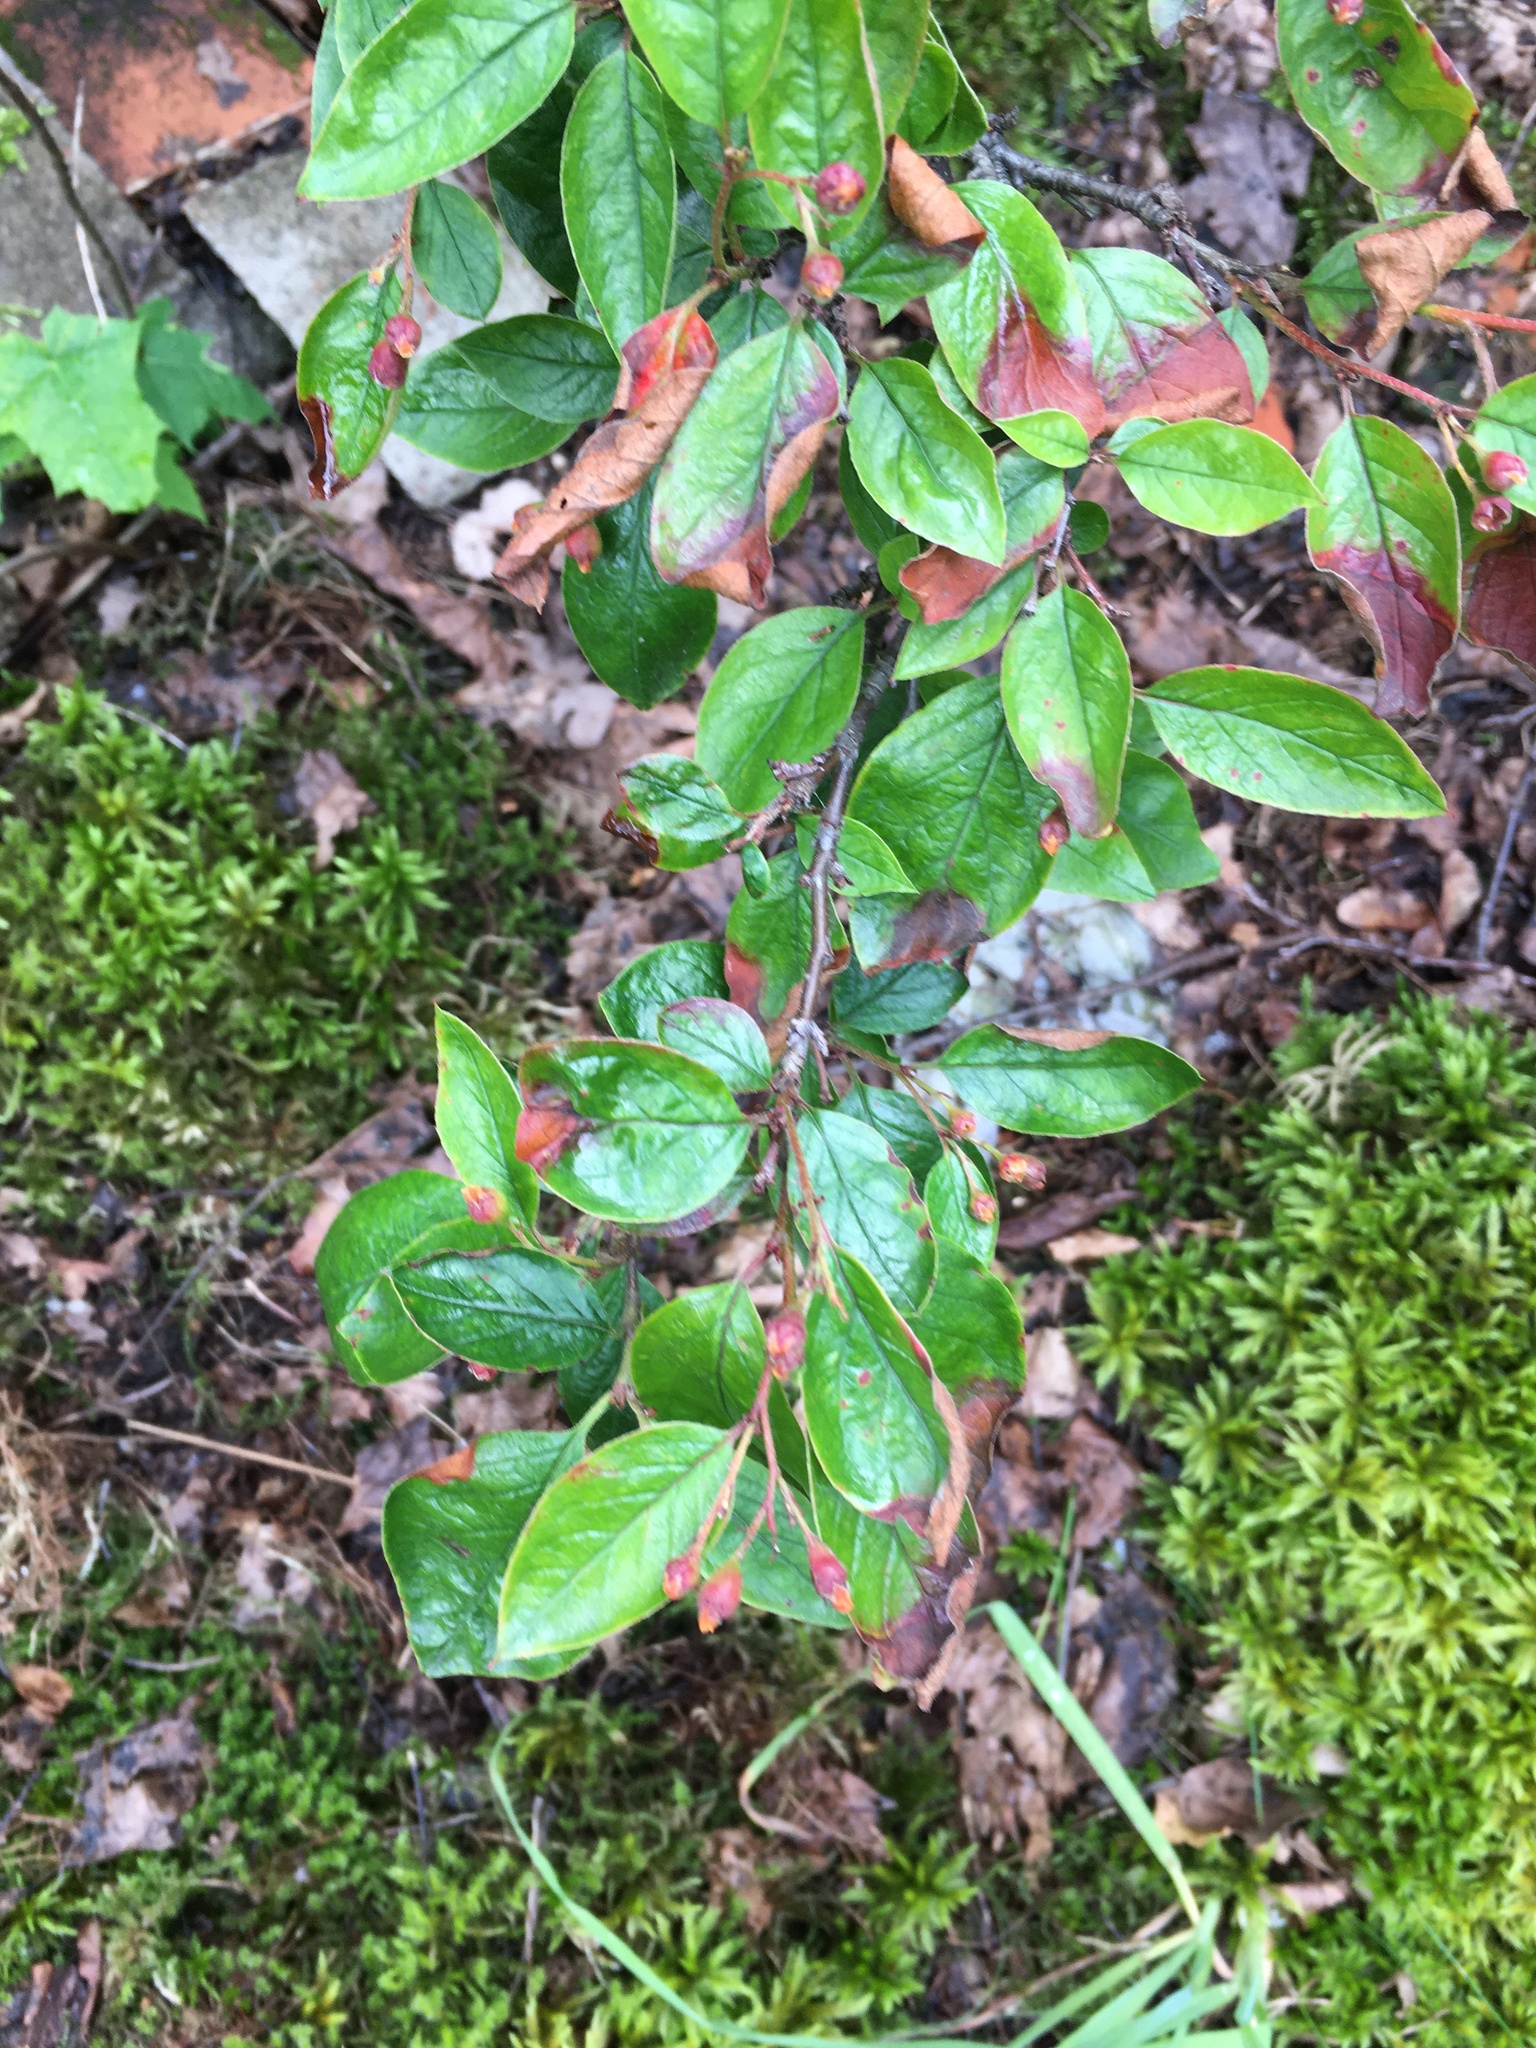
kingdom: Plantae
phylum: Tracheophyta
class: Magnoliopsida
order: Rosales
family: Rosaceae
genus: Cotoneaster
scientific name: Cotoneaster acutifolius
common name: Peking cotoneaster
